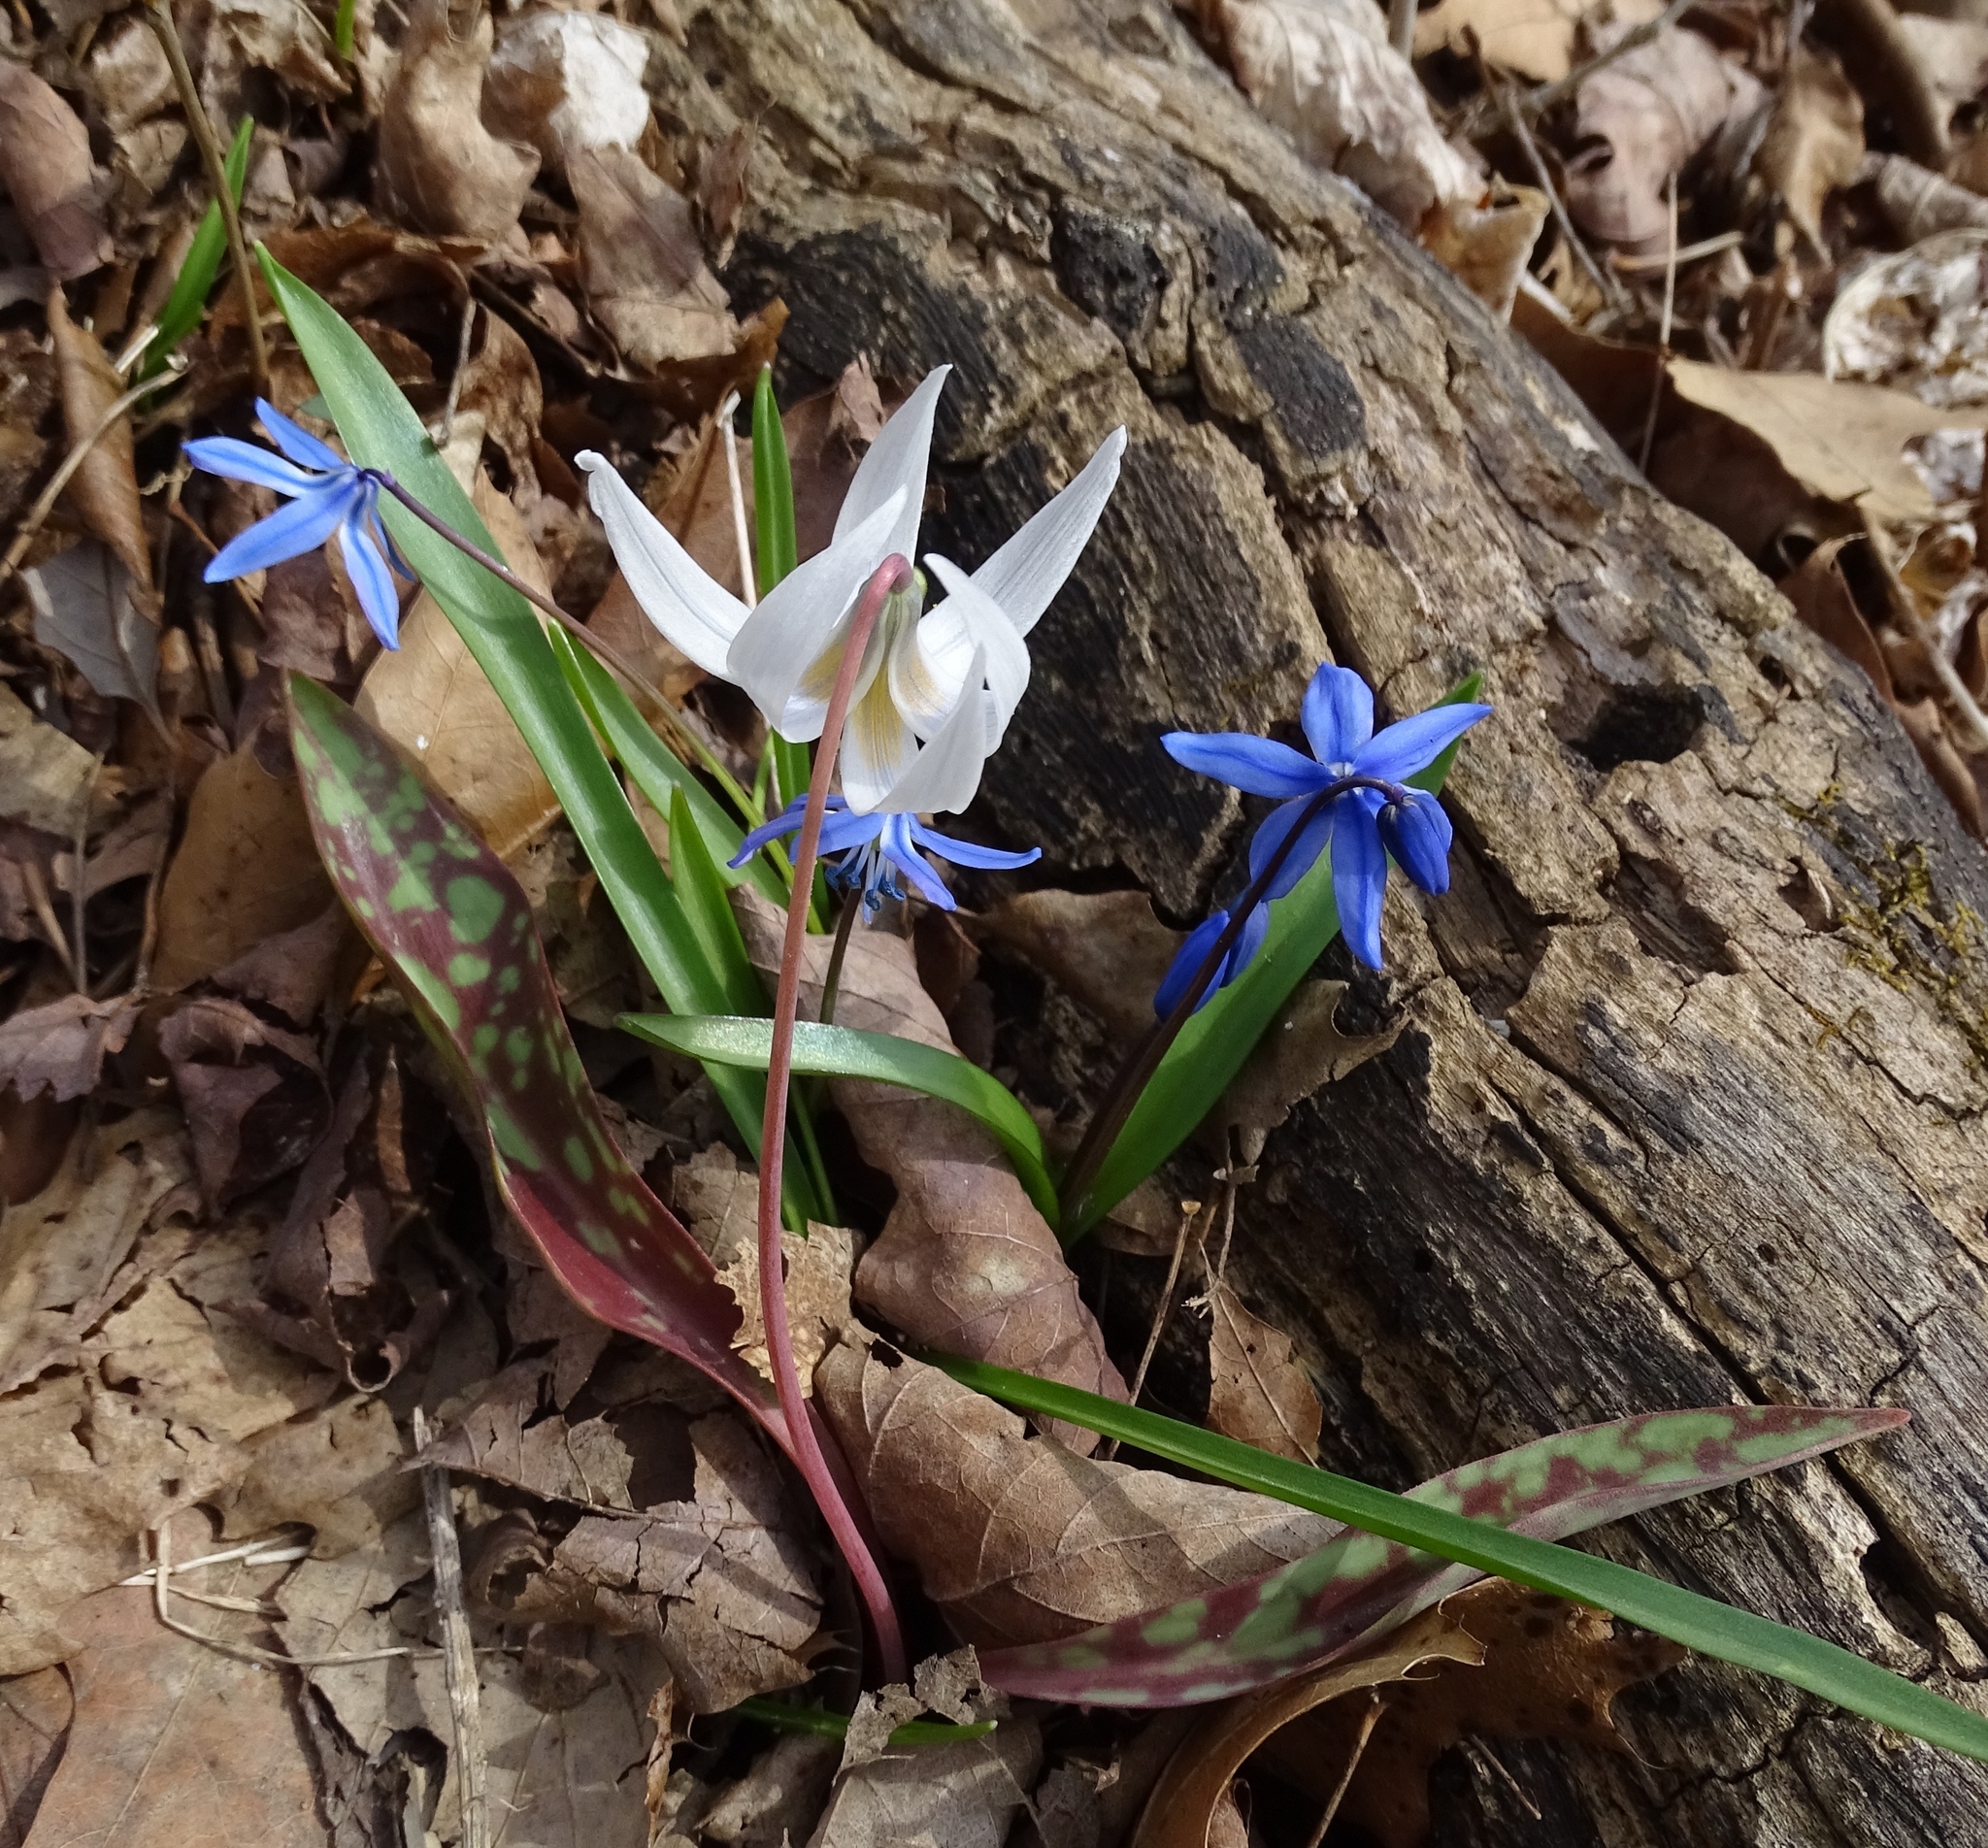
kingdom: Plantae
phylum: Tracheophyta
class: Liliopsida
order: Liliales
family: Liliaceae
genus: Erythronium
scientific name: Erythronium albidum
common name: White trout-lily
